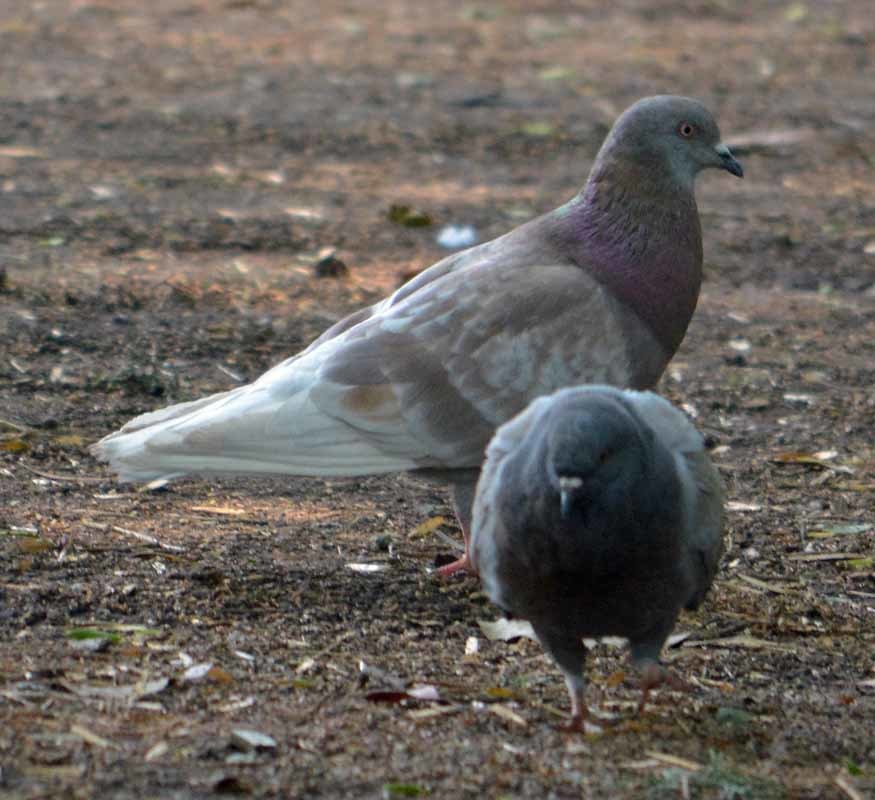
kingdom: Animalia
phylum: Chordata
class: Aves
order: Columbiformes
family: Columbidae
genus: Columba
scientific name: Columba livia
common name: Rock pigeon
